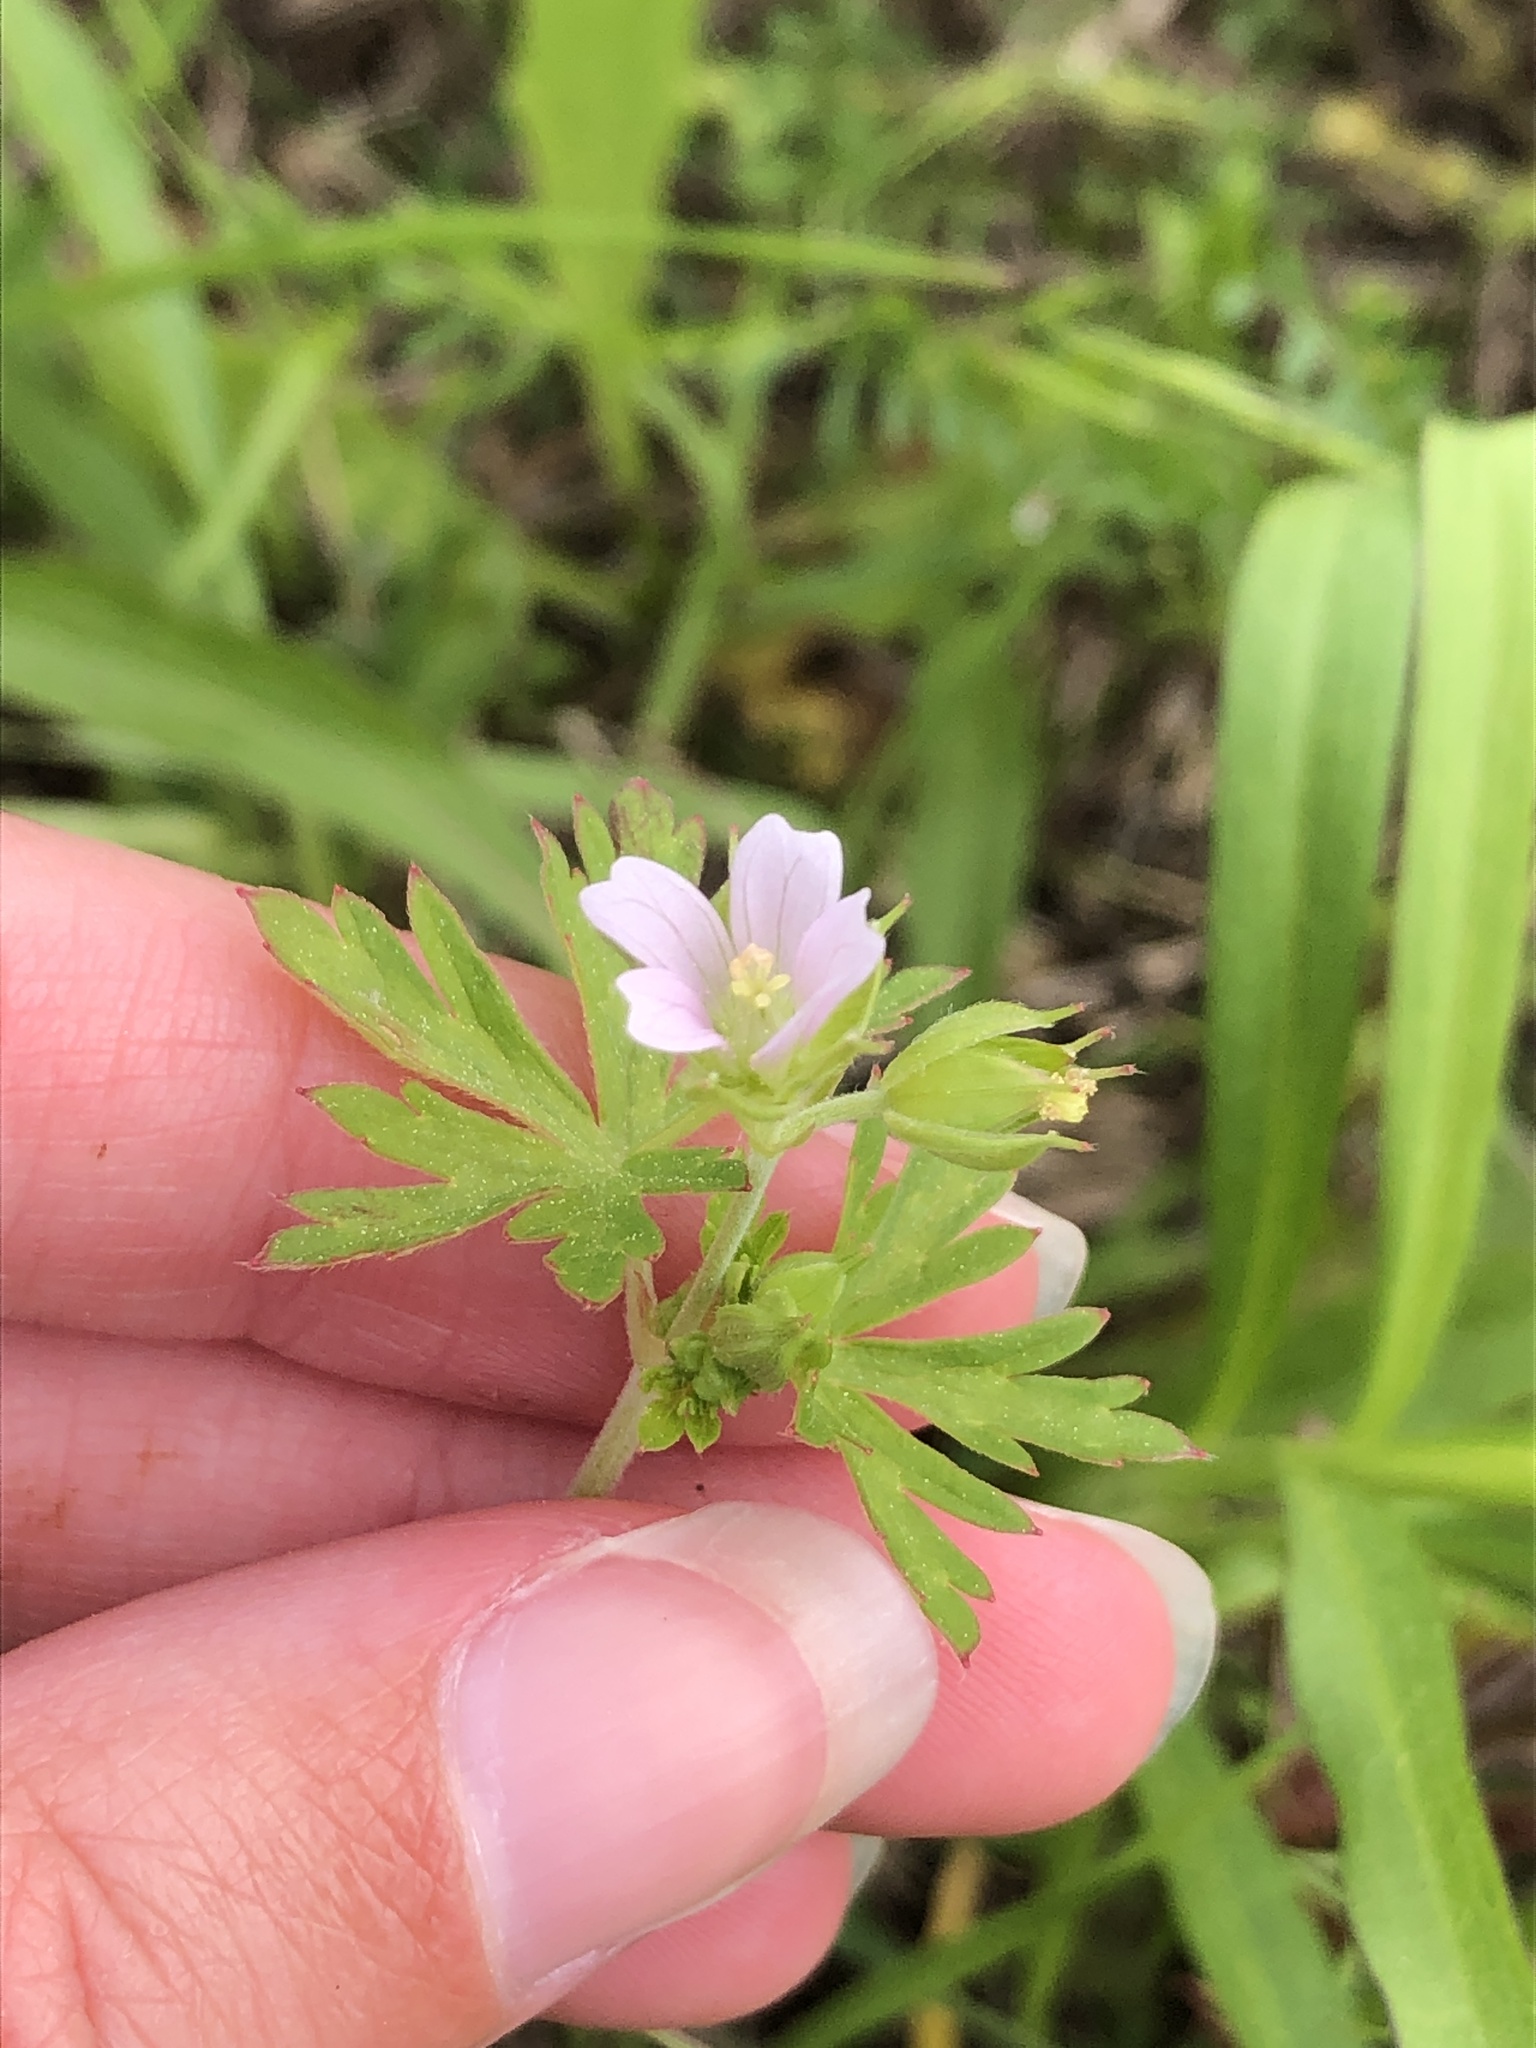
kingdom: Plantae
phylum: Tracheophyta
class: Magnoliopsida
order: Geraniales
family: Geraniaceae
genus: Geranium
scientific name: Geranium carolinianum
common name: Carolina crane's-bill
